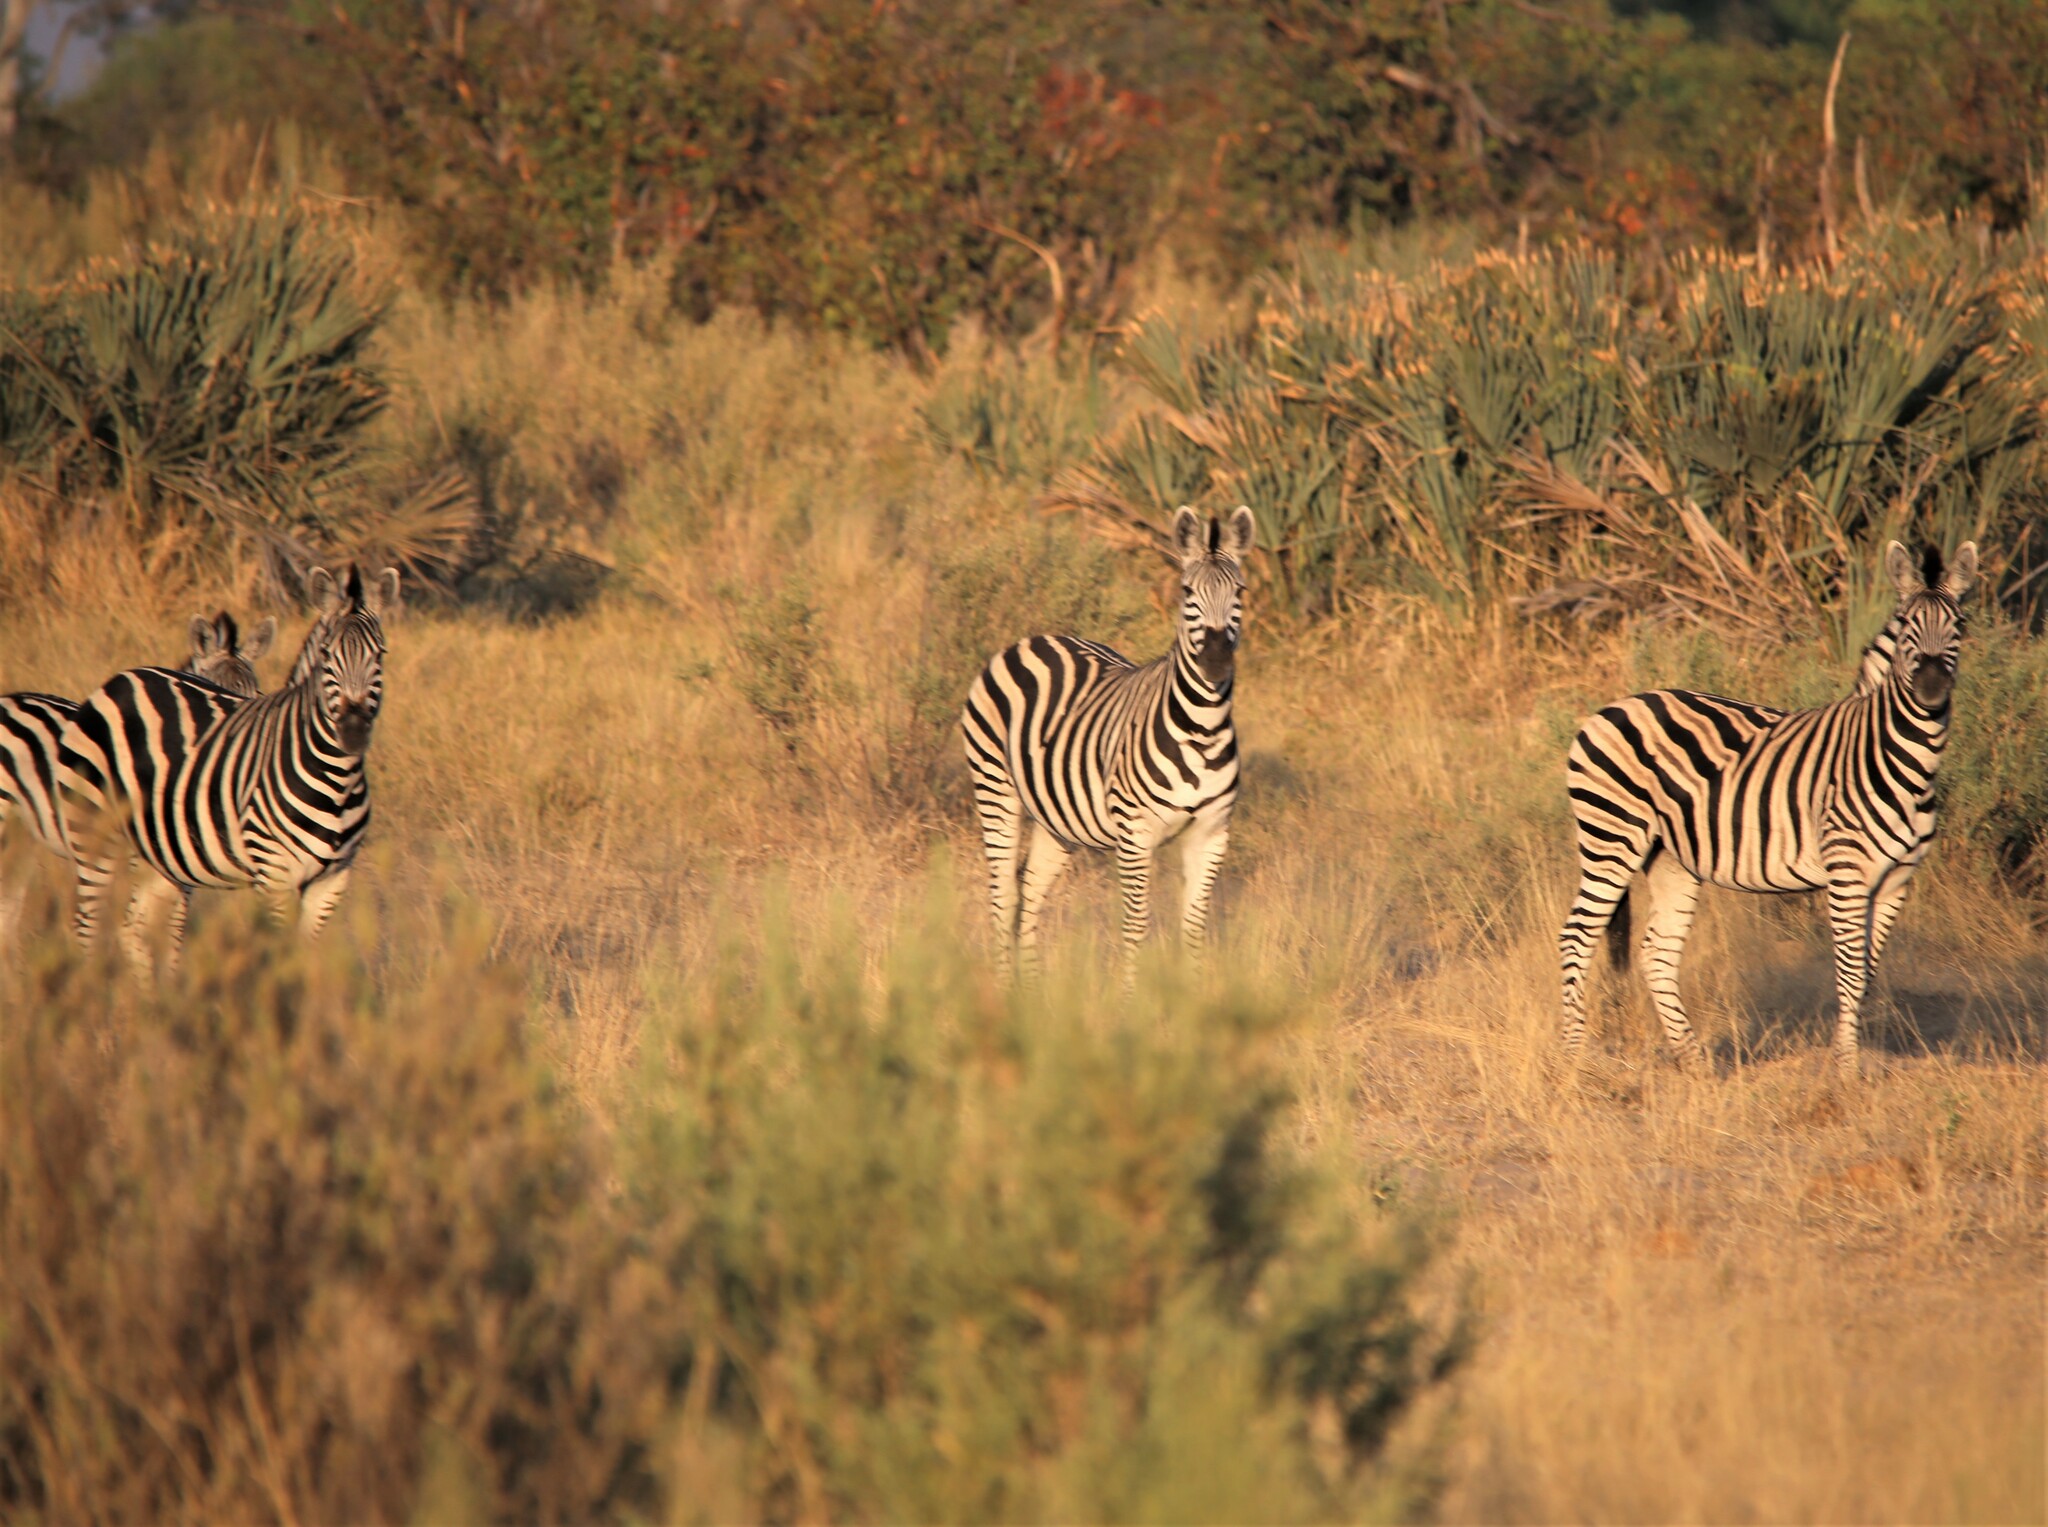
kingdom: Animalia
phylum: Chordata
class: Mammalia
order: Perissodactyla
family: Equidae
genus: Equus
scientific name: Equus quagga
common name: Plains zebra
